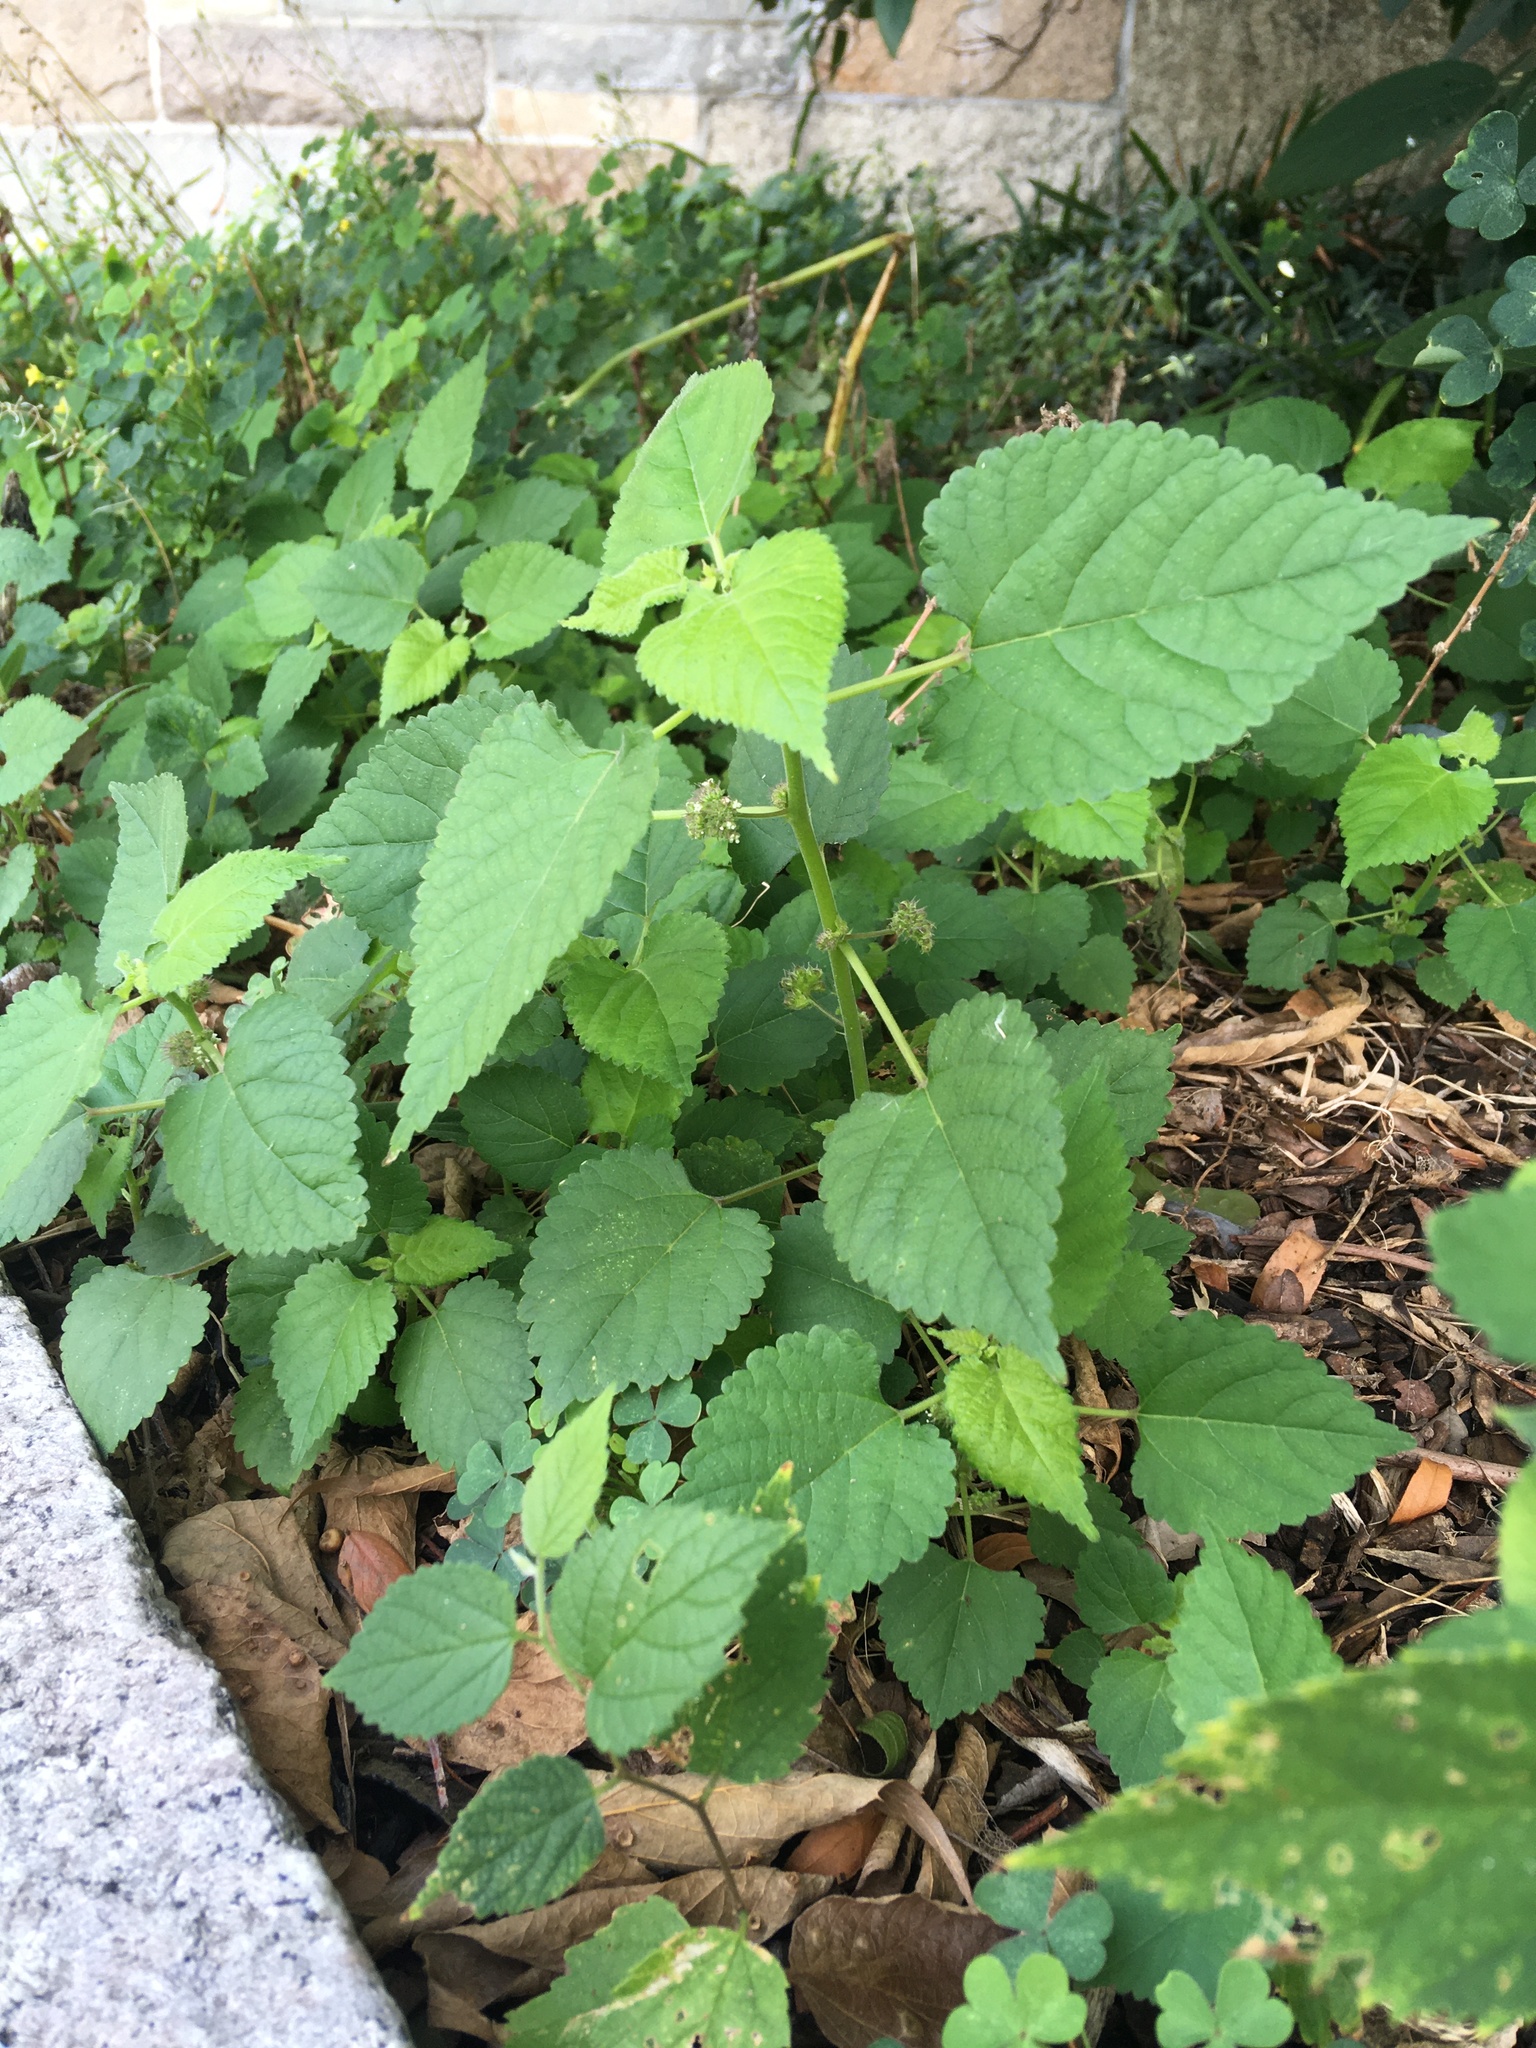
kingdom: Plantae
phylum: Tracheophyta
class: Magnoliopsida
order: Rosales
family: Moraceae
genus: Fatoua
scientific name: Fatoua villosa
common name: Hairy crabweed
